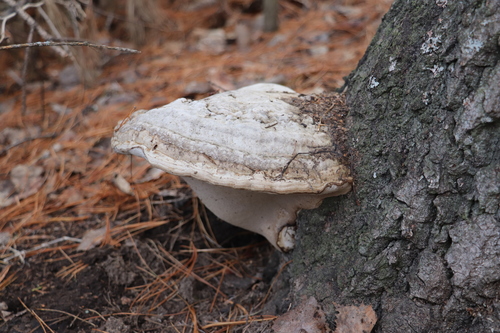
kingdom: Fungi
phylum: Basidiomycota
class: Agaricomycetes
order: Polyporales
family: Polyporaceae
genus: Fomes
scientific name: Fomes fomentarius
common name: Hoof fungus
